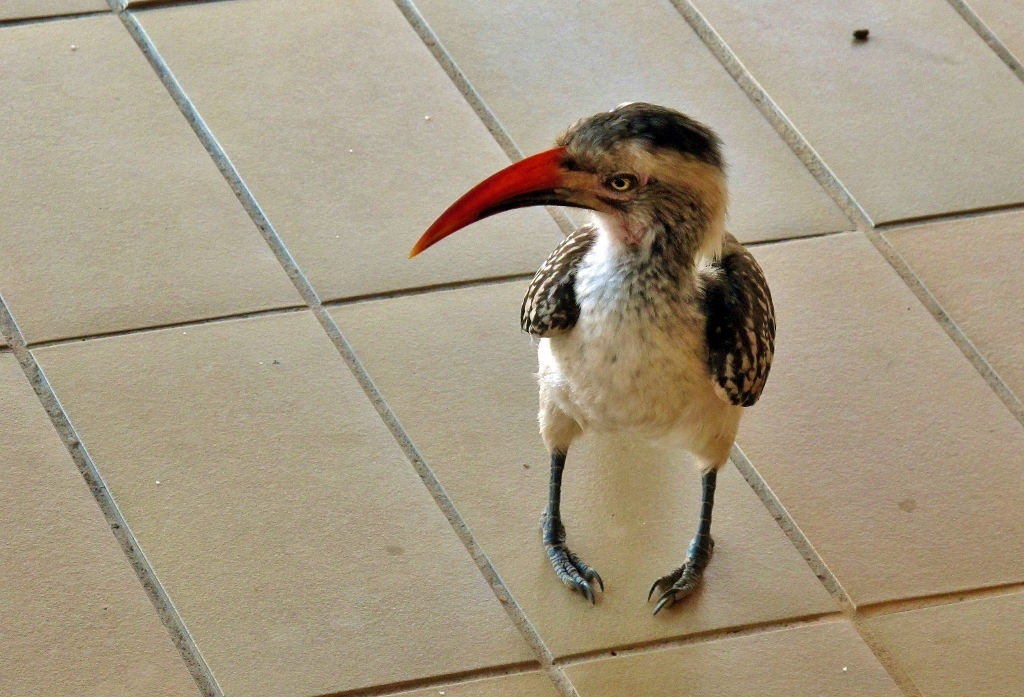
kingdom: Animalia
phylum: Chordata
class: Aves
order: Bucerotiformes
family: Bucerotidae
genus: Tockus
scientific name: Tockus rufirostris
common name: Southern red-billed hornbill
